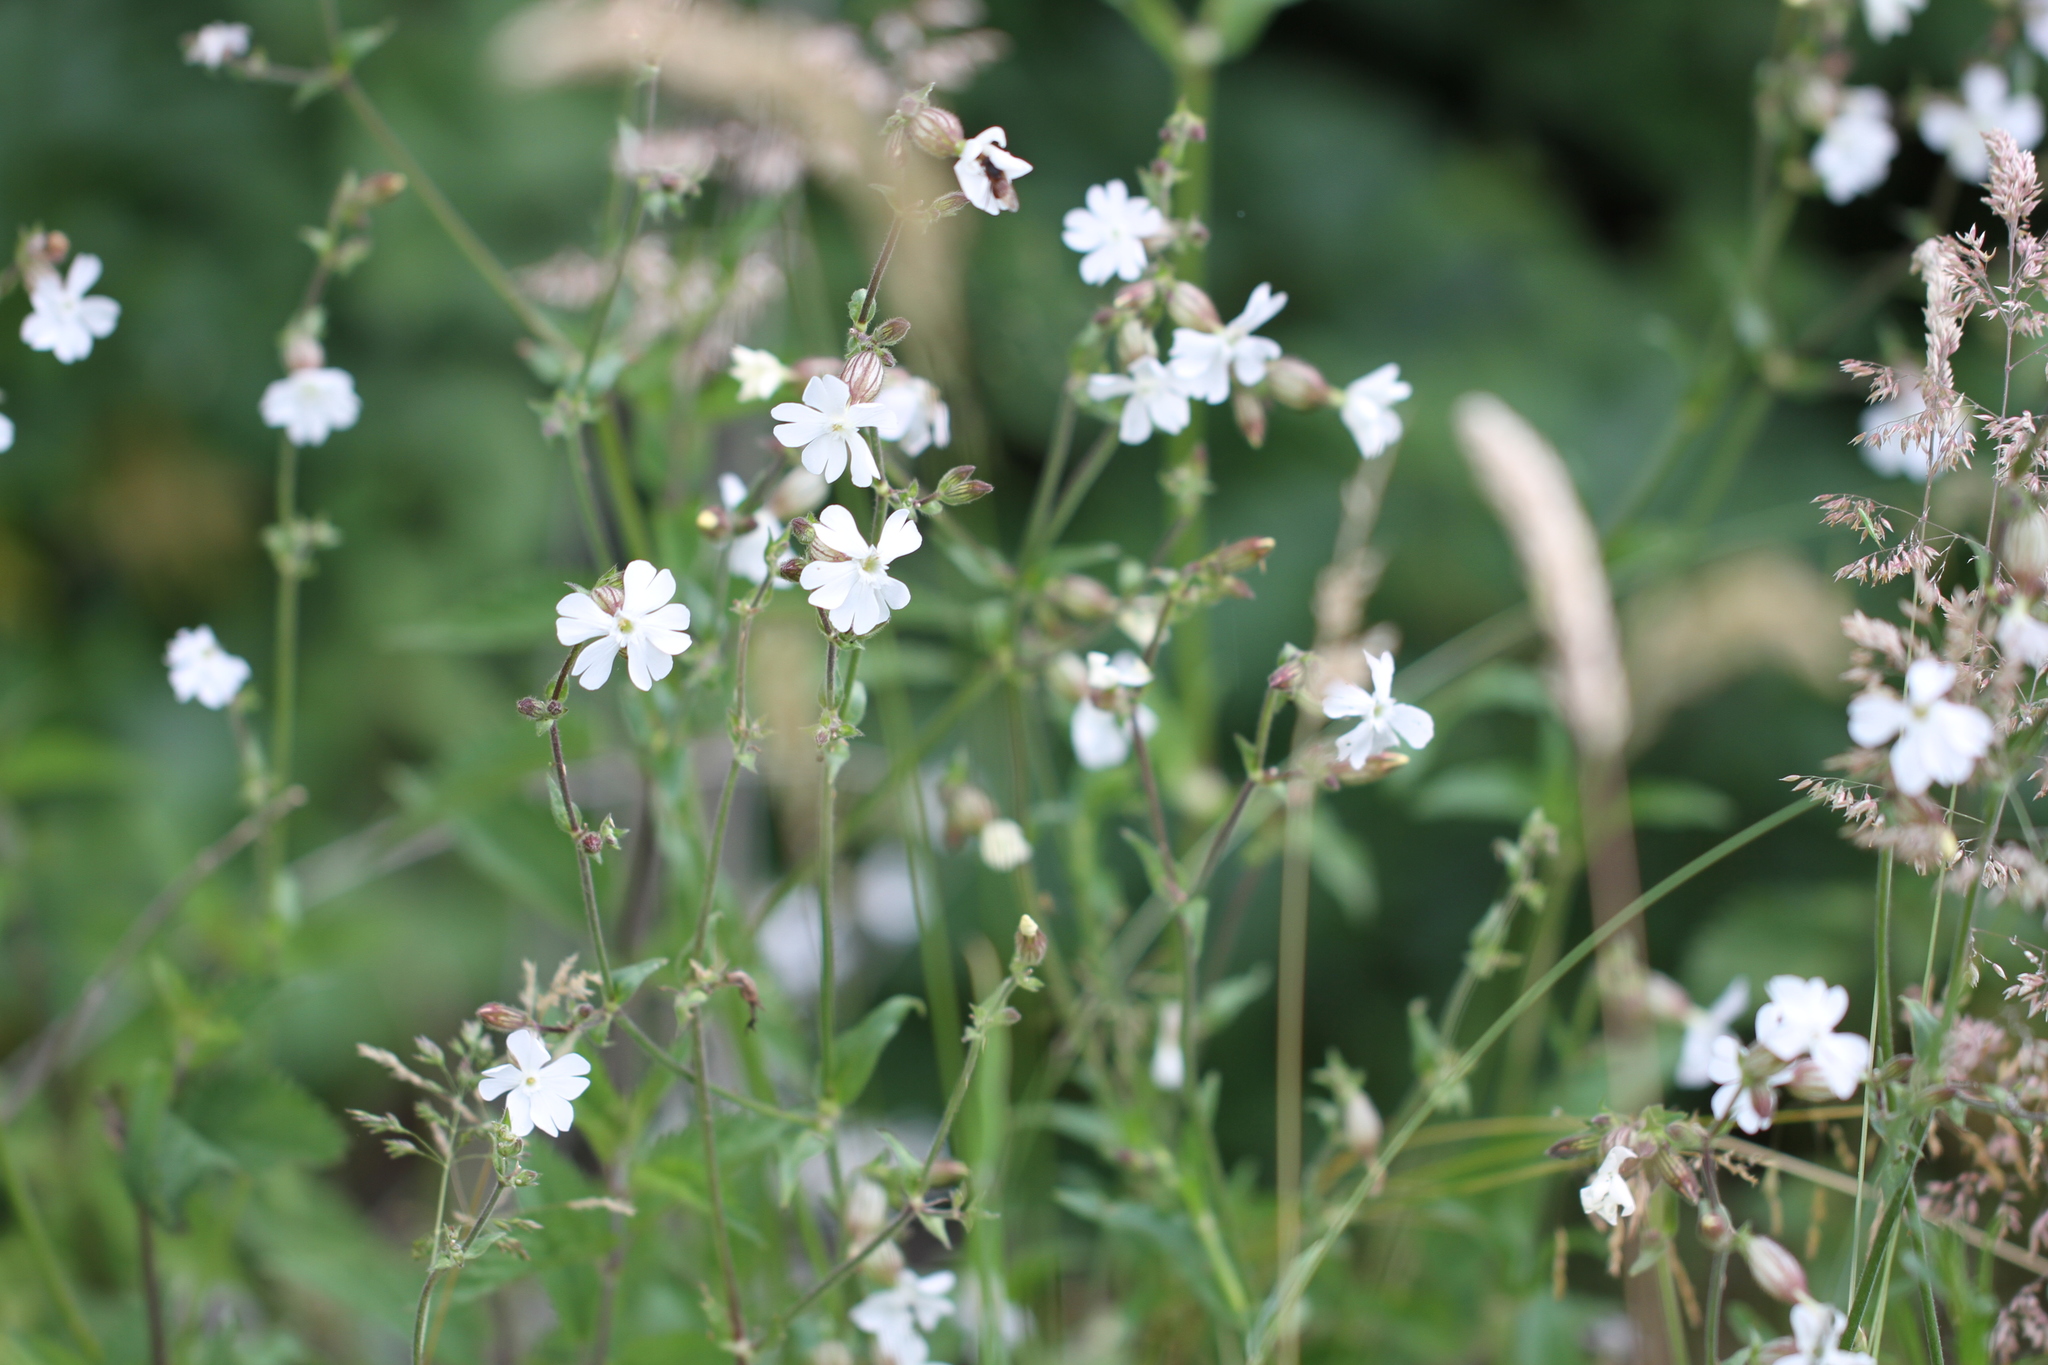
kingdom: Plantae
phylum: Tracheophyta
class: Magnoliopsida
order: Caryophyllales
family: Caryophyllaceae
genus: Silene
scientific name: Silene latifolia
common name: White campion
